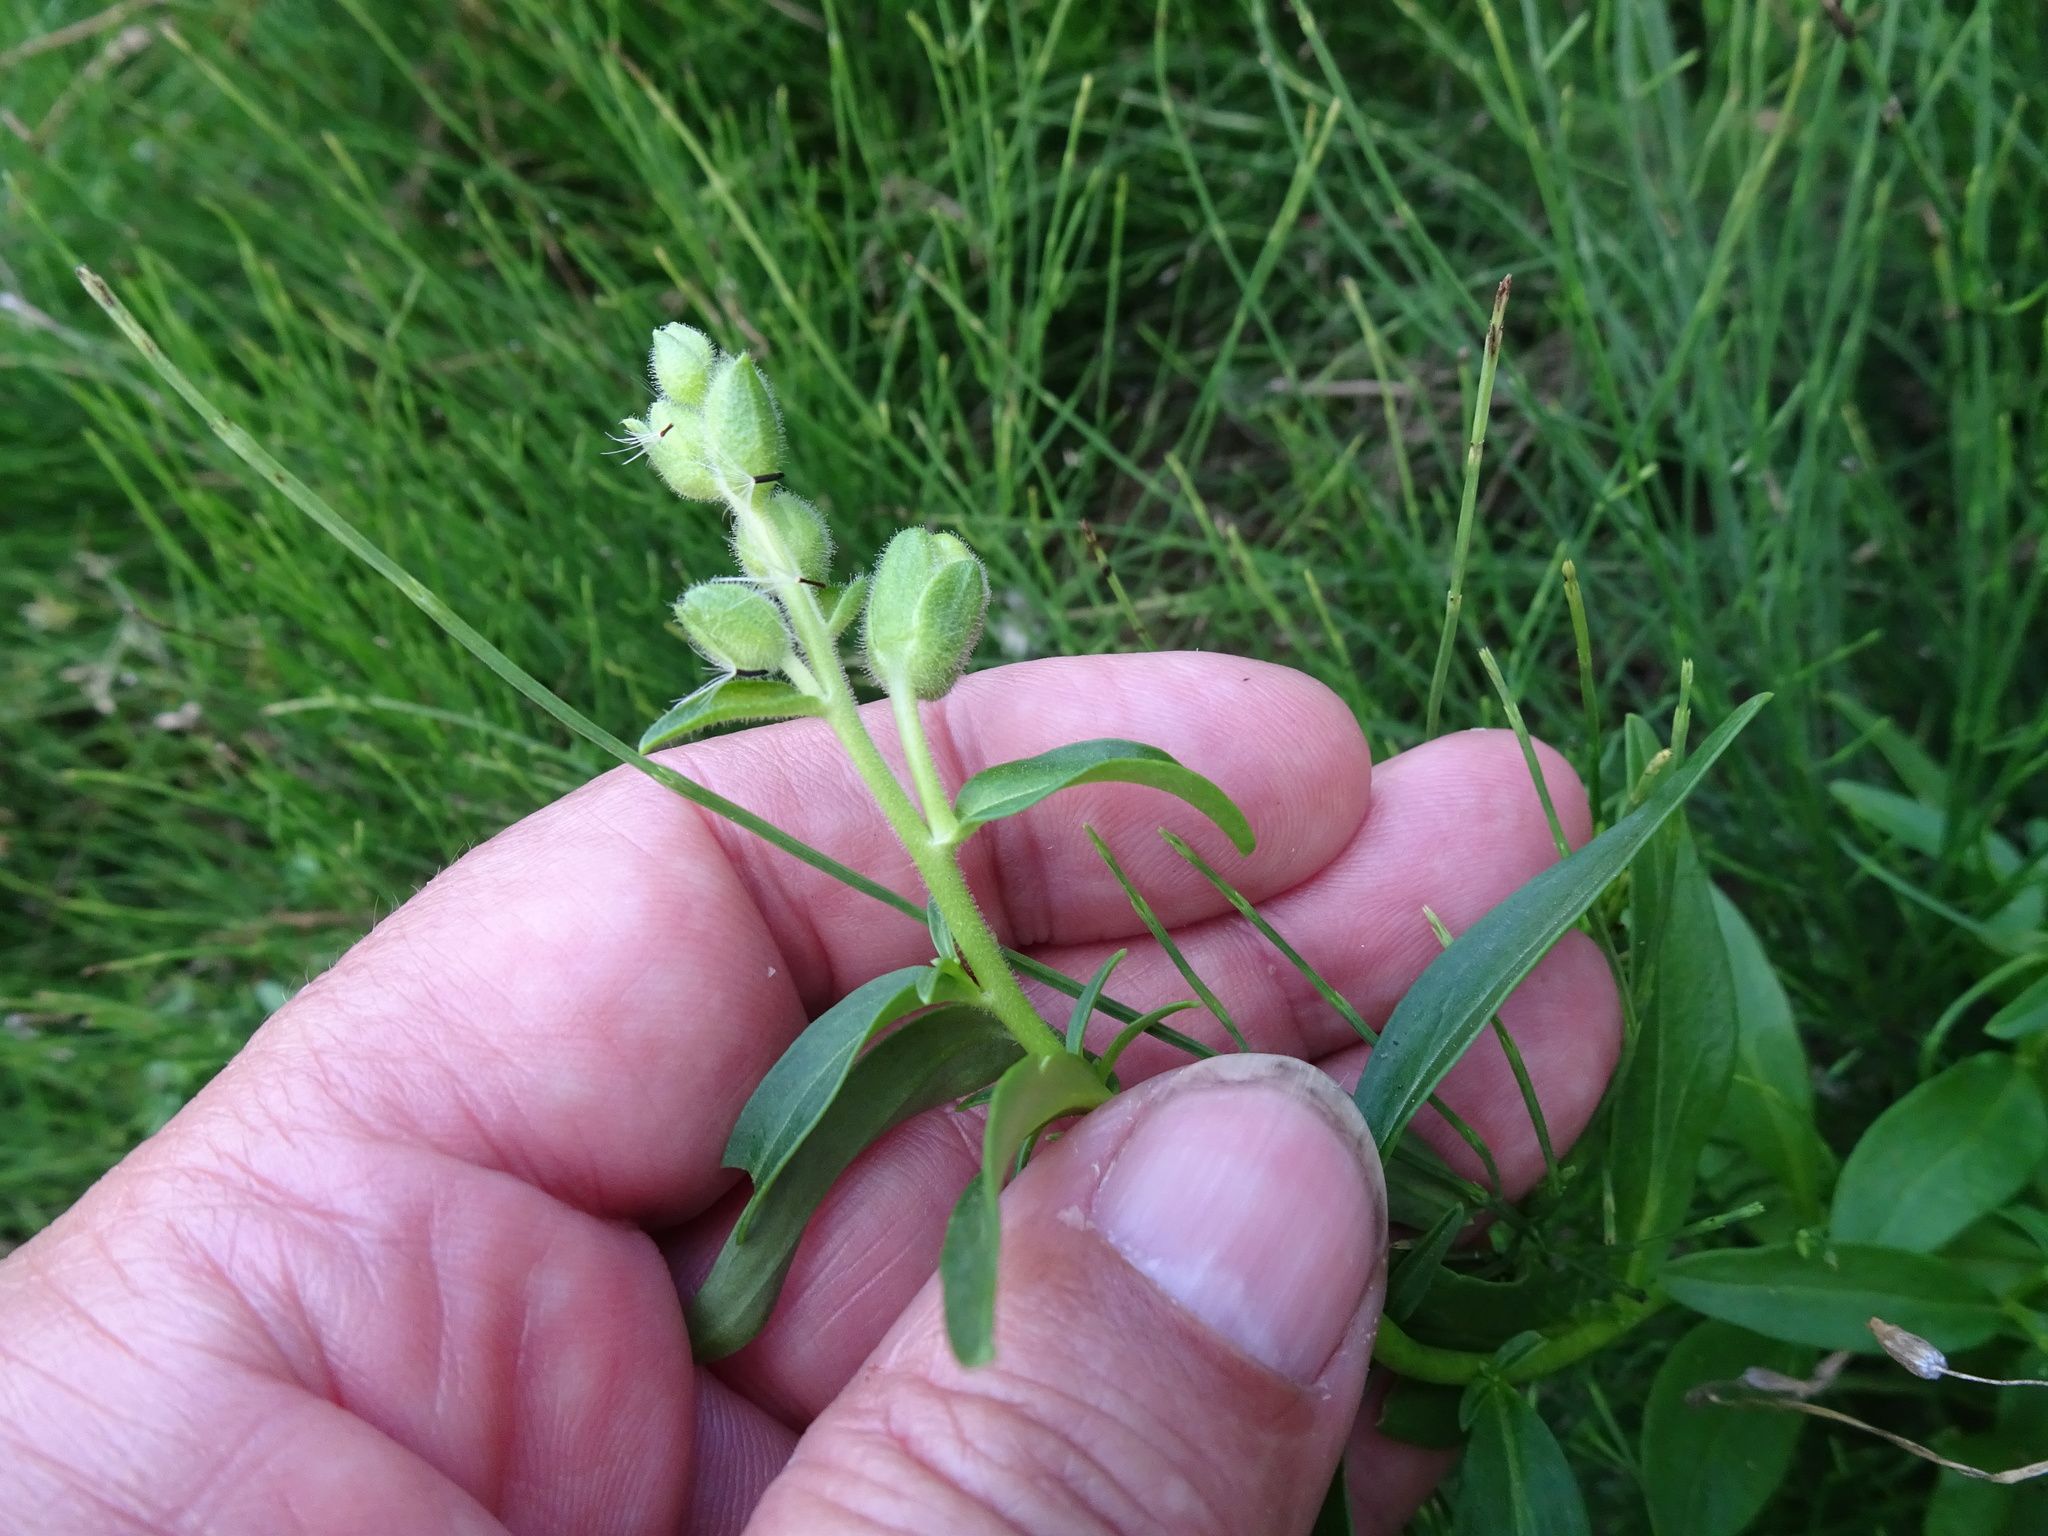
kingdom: Plantae
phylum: Tracheophyta
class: Magnoliopsida
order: Lamiales
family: Plantaginaceae
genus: Antirrhinum
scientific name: Antirrhinum majus
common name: Snapdragon
